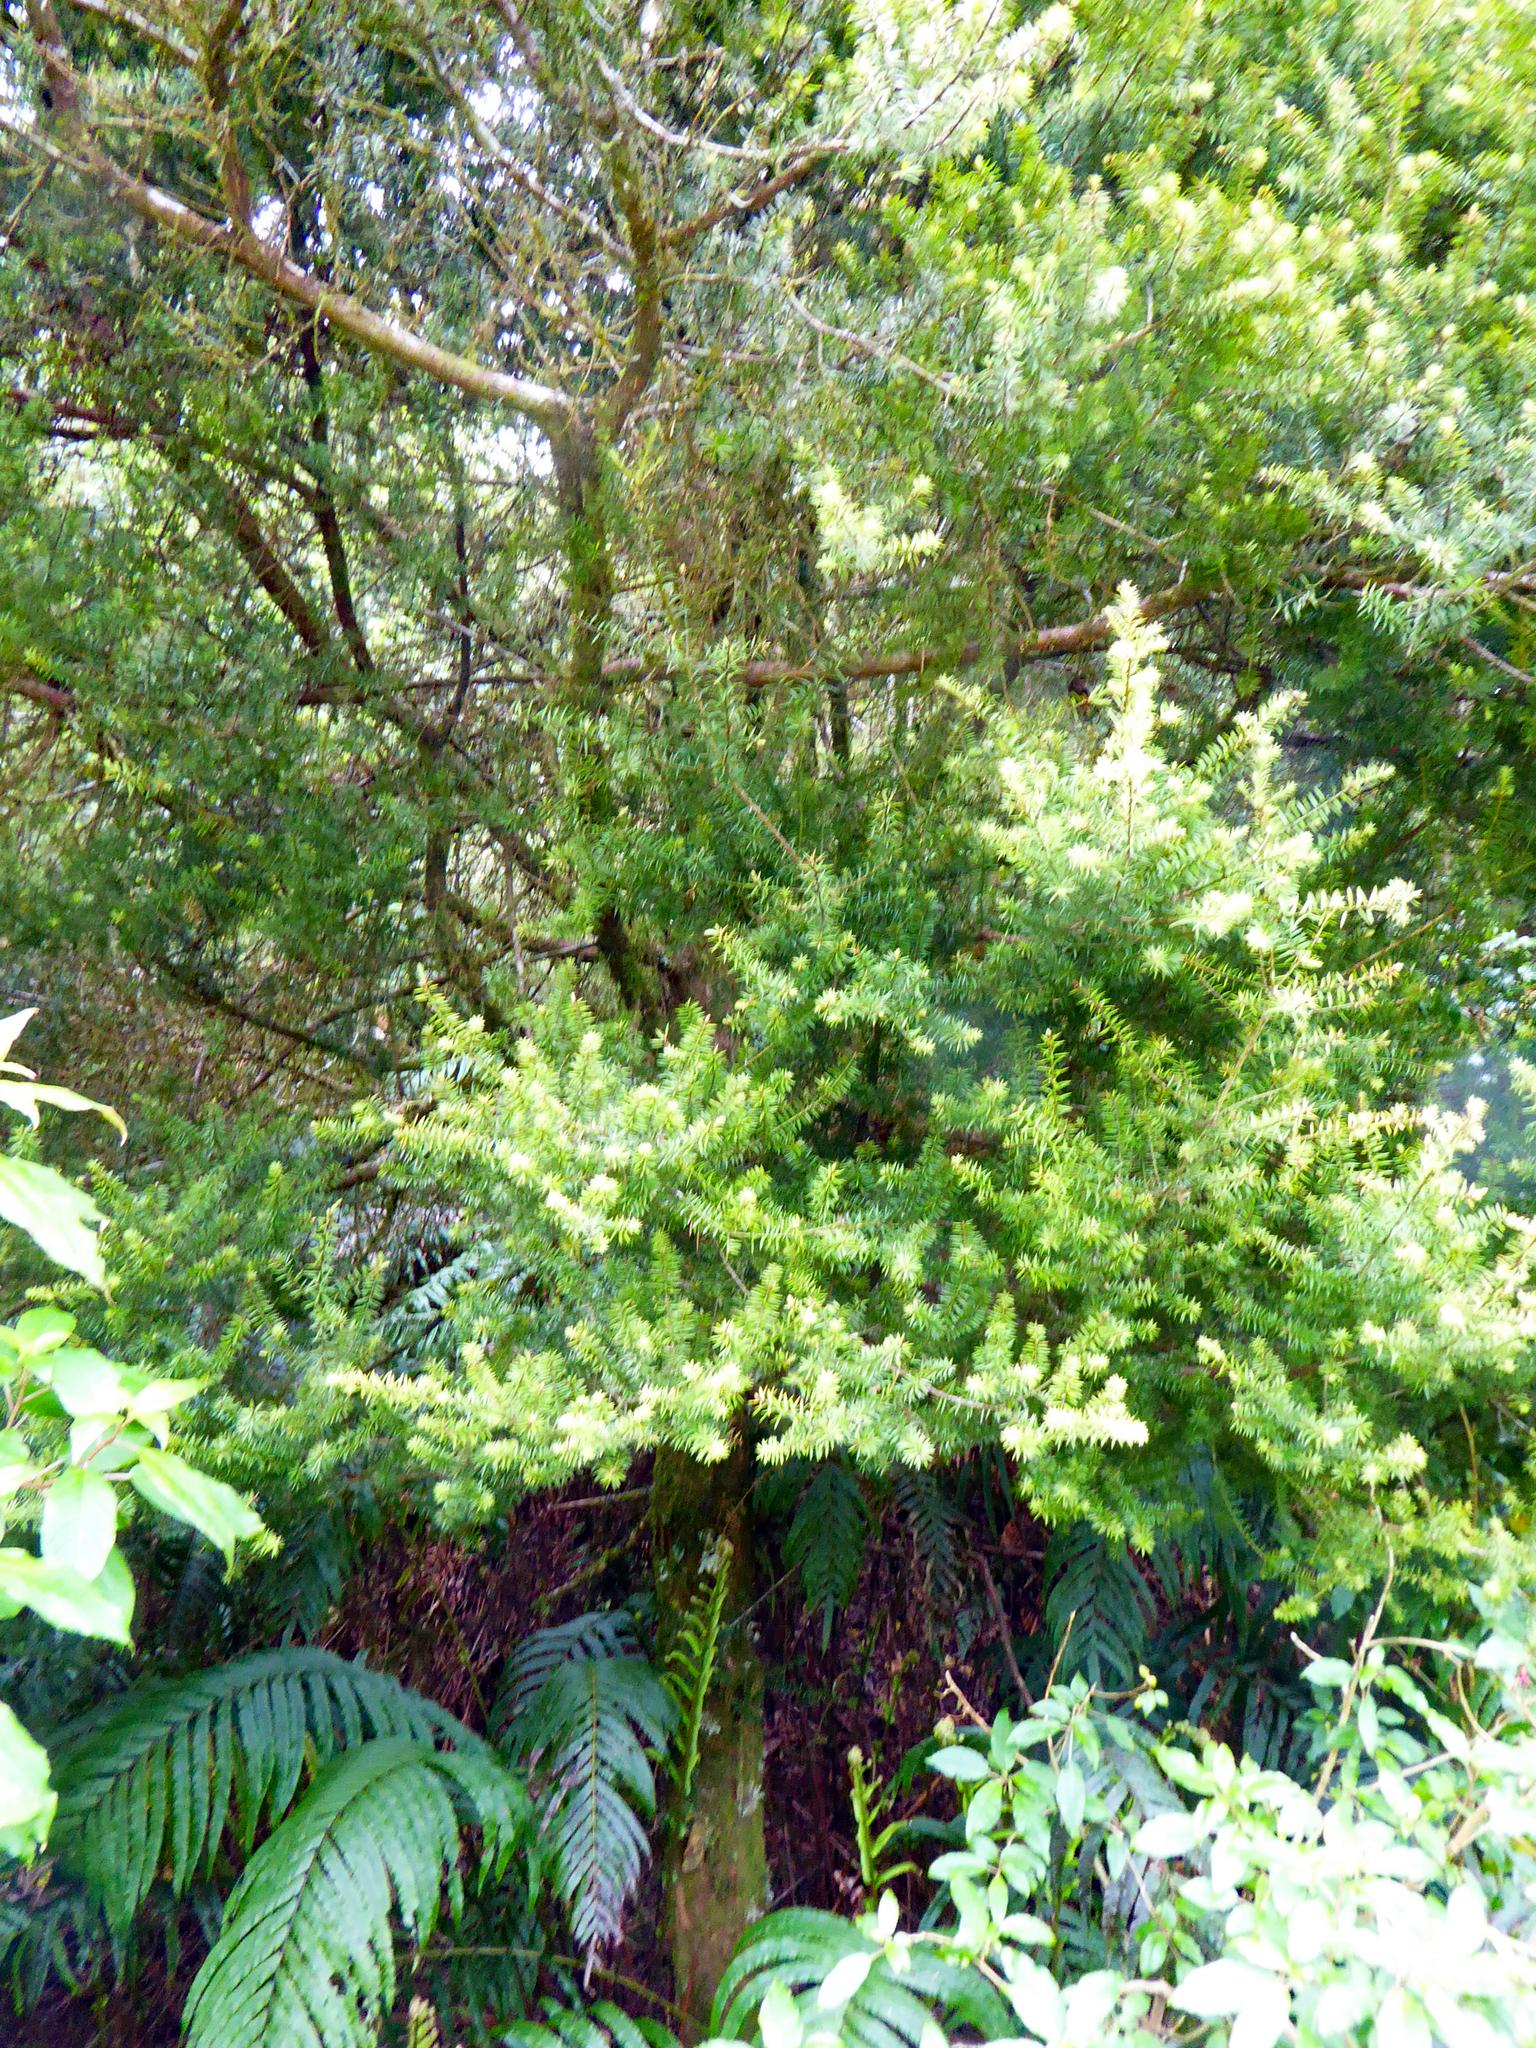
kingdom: Plantae
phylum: Tracheophyta
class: Pinopsida
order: Pinales
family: Podocarpaceae
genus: Podocarpus
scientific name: Podocarpus acutifolius
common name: Needle-leaved totara
